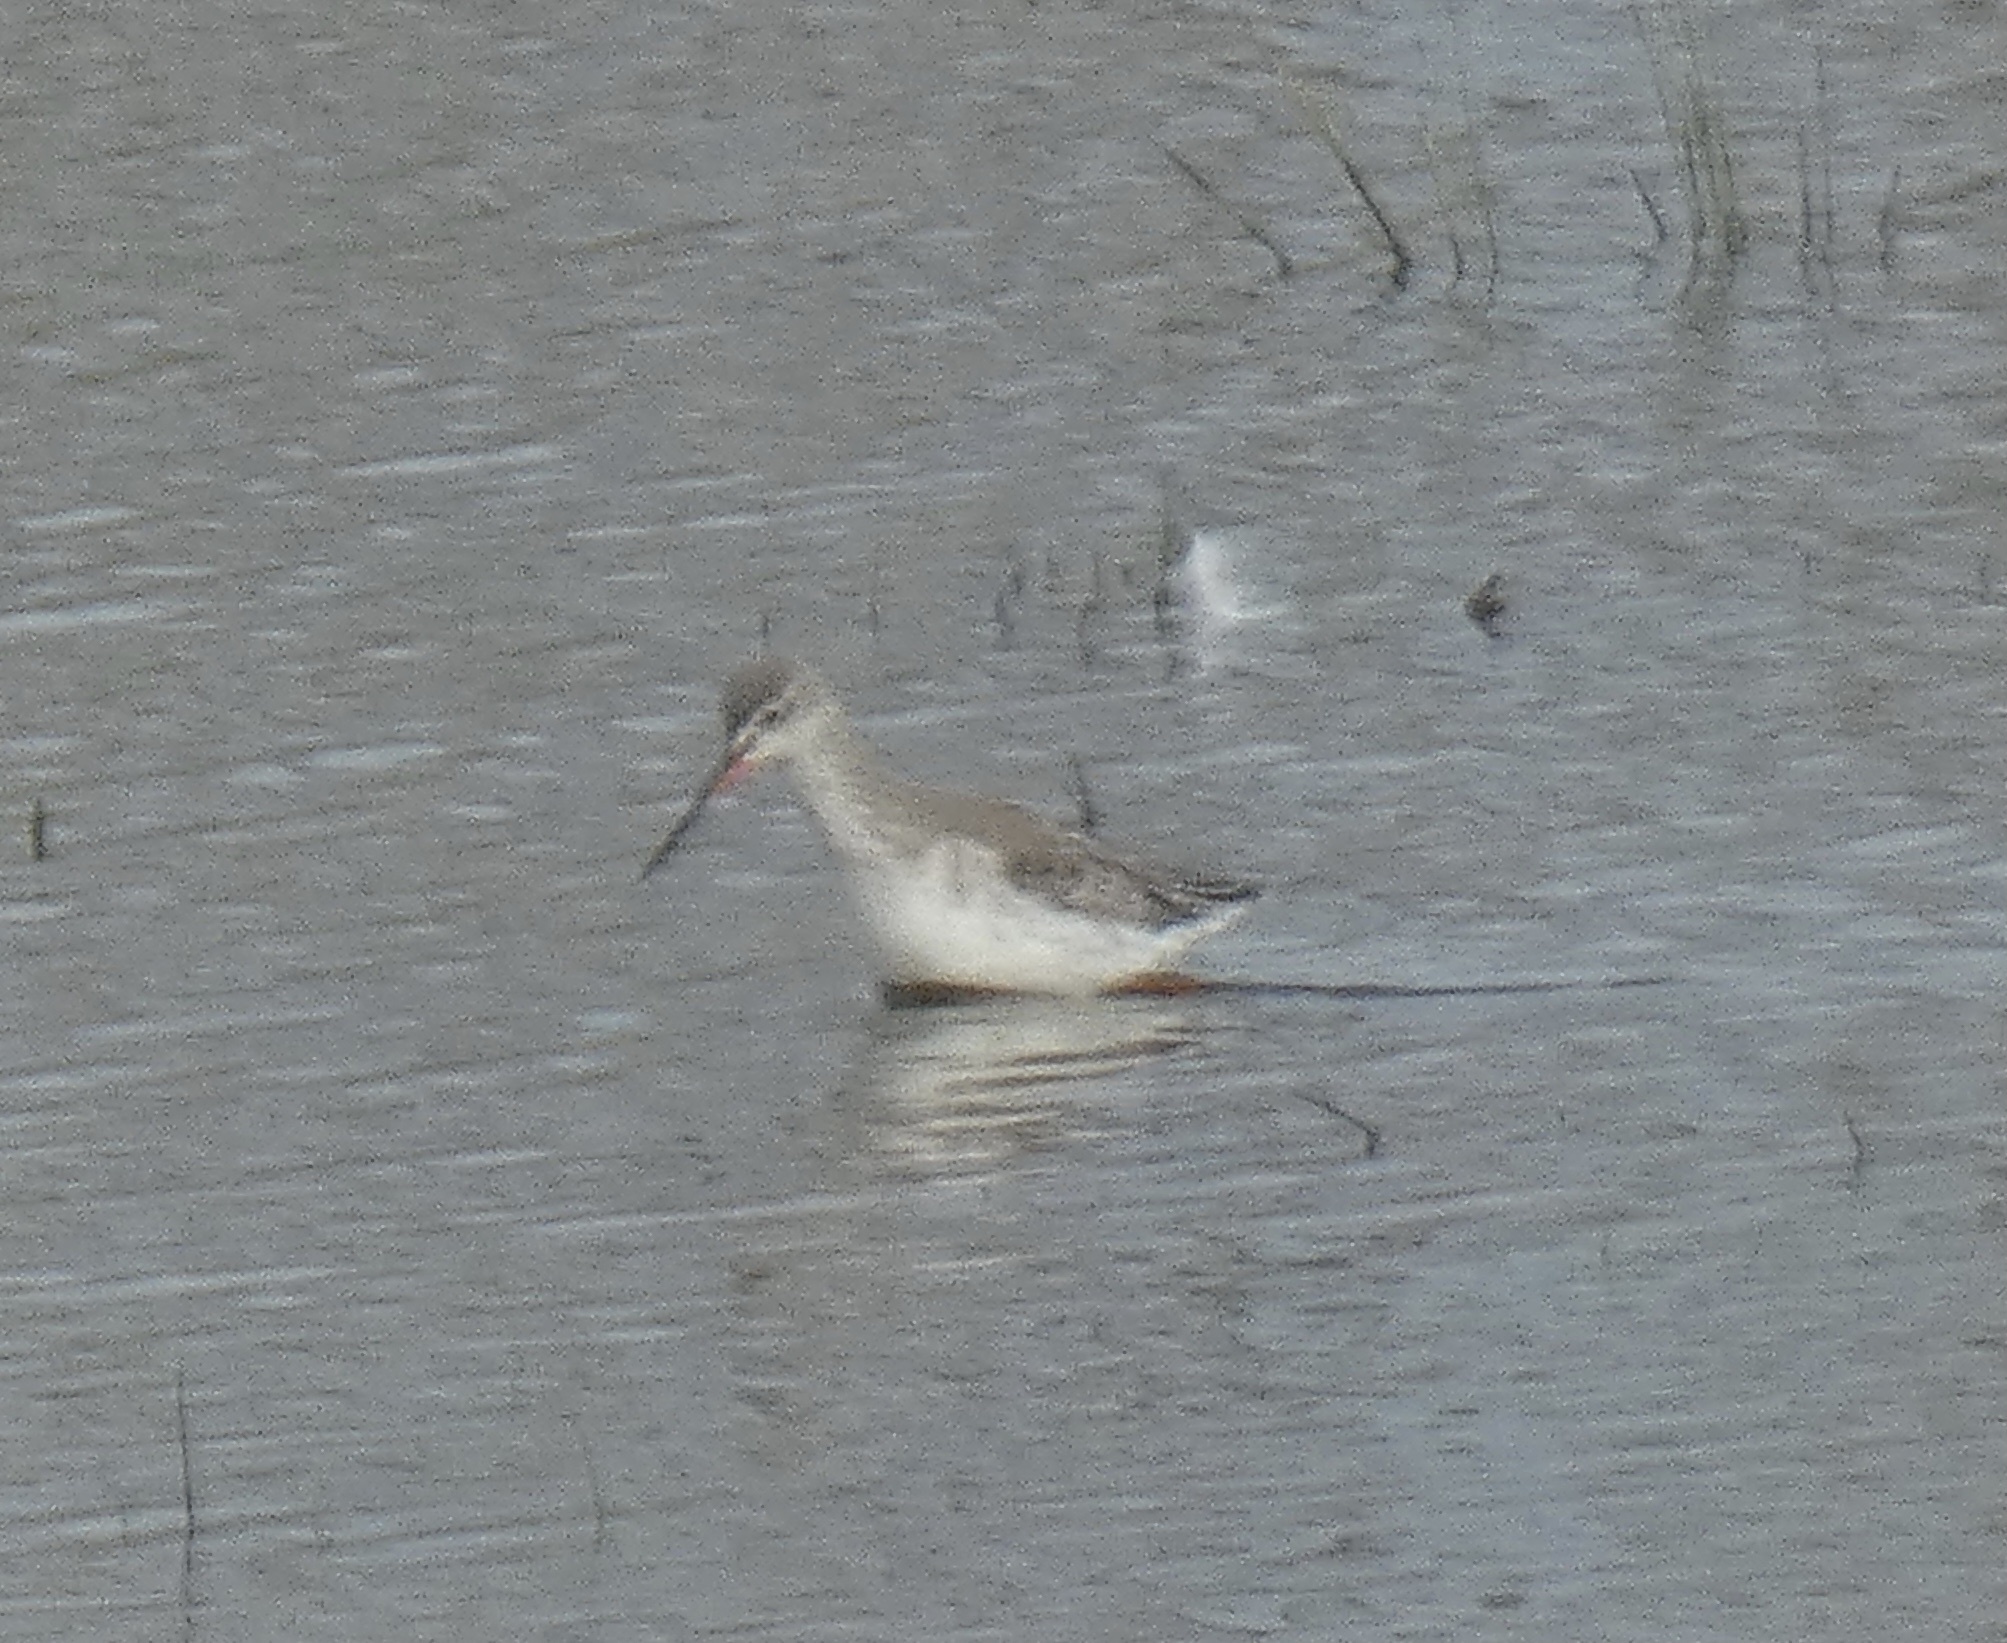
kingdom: Animalia
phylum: Chordata
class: Aves
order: Charadriiformes
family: Scolopacidae
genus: Tringa
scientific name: Tringa erythropus
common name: Spotted redshank
